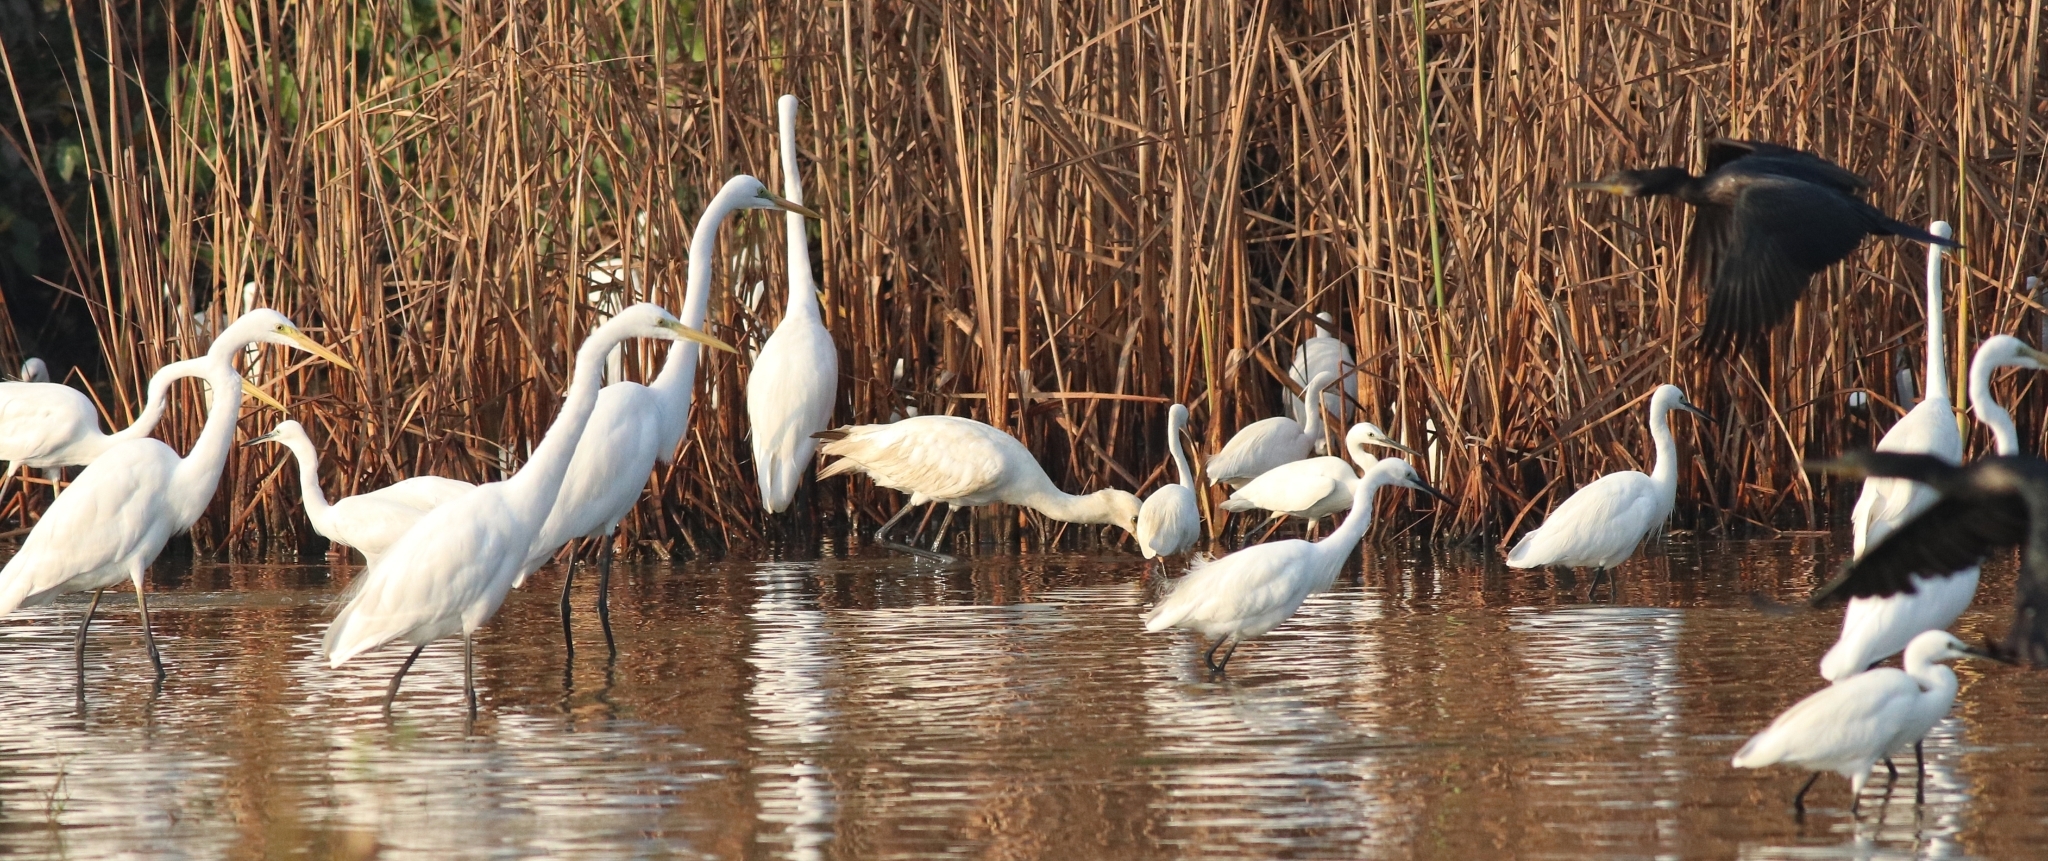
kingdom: Animalia
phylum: Chordata
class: Aves
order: Pelecaniformes
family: Ardeidae
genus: Ardea
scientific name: Ardea alba
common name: Great egret
